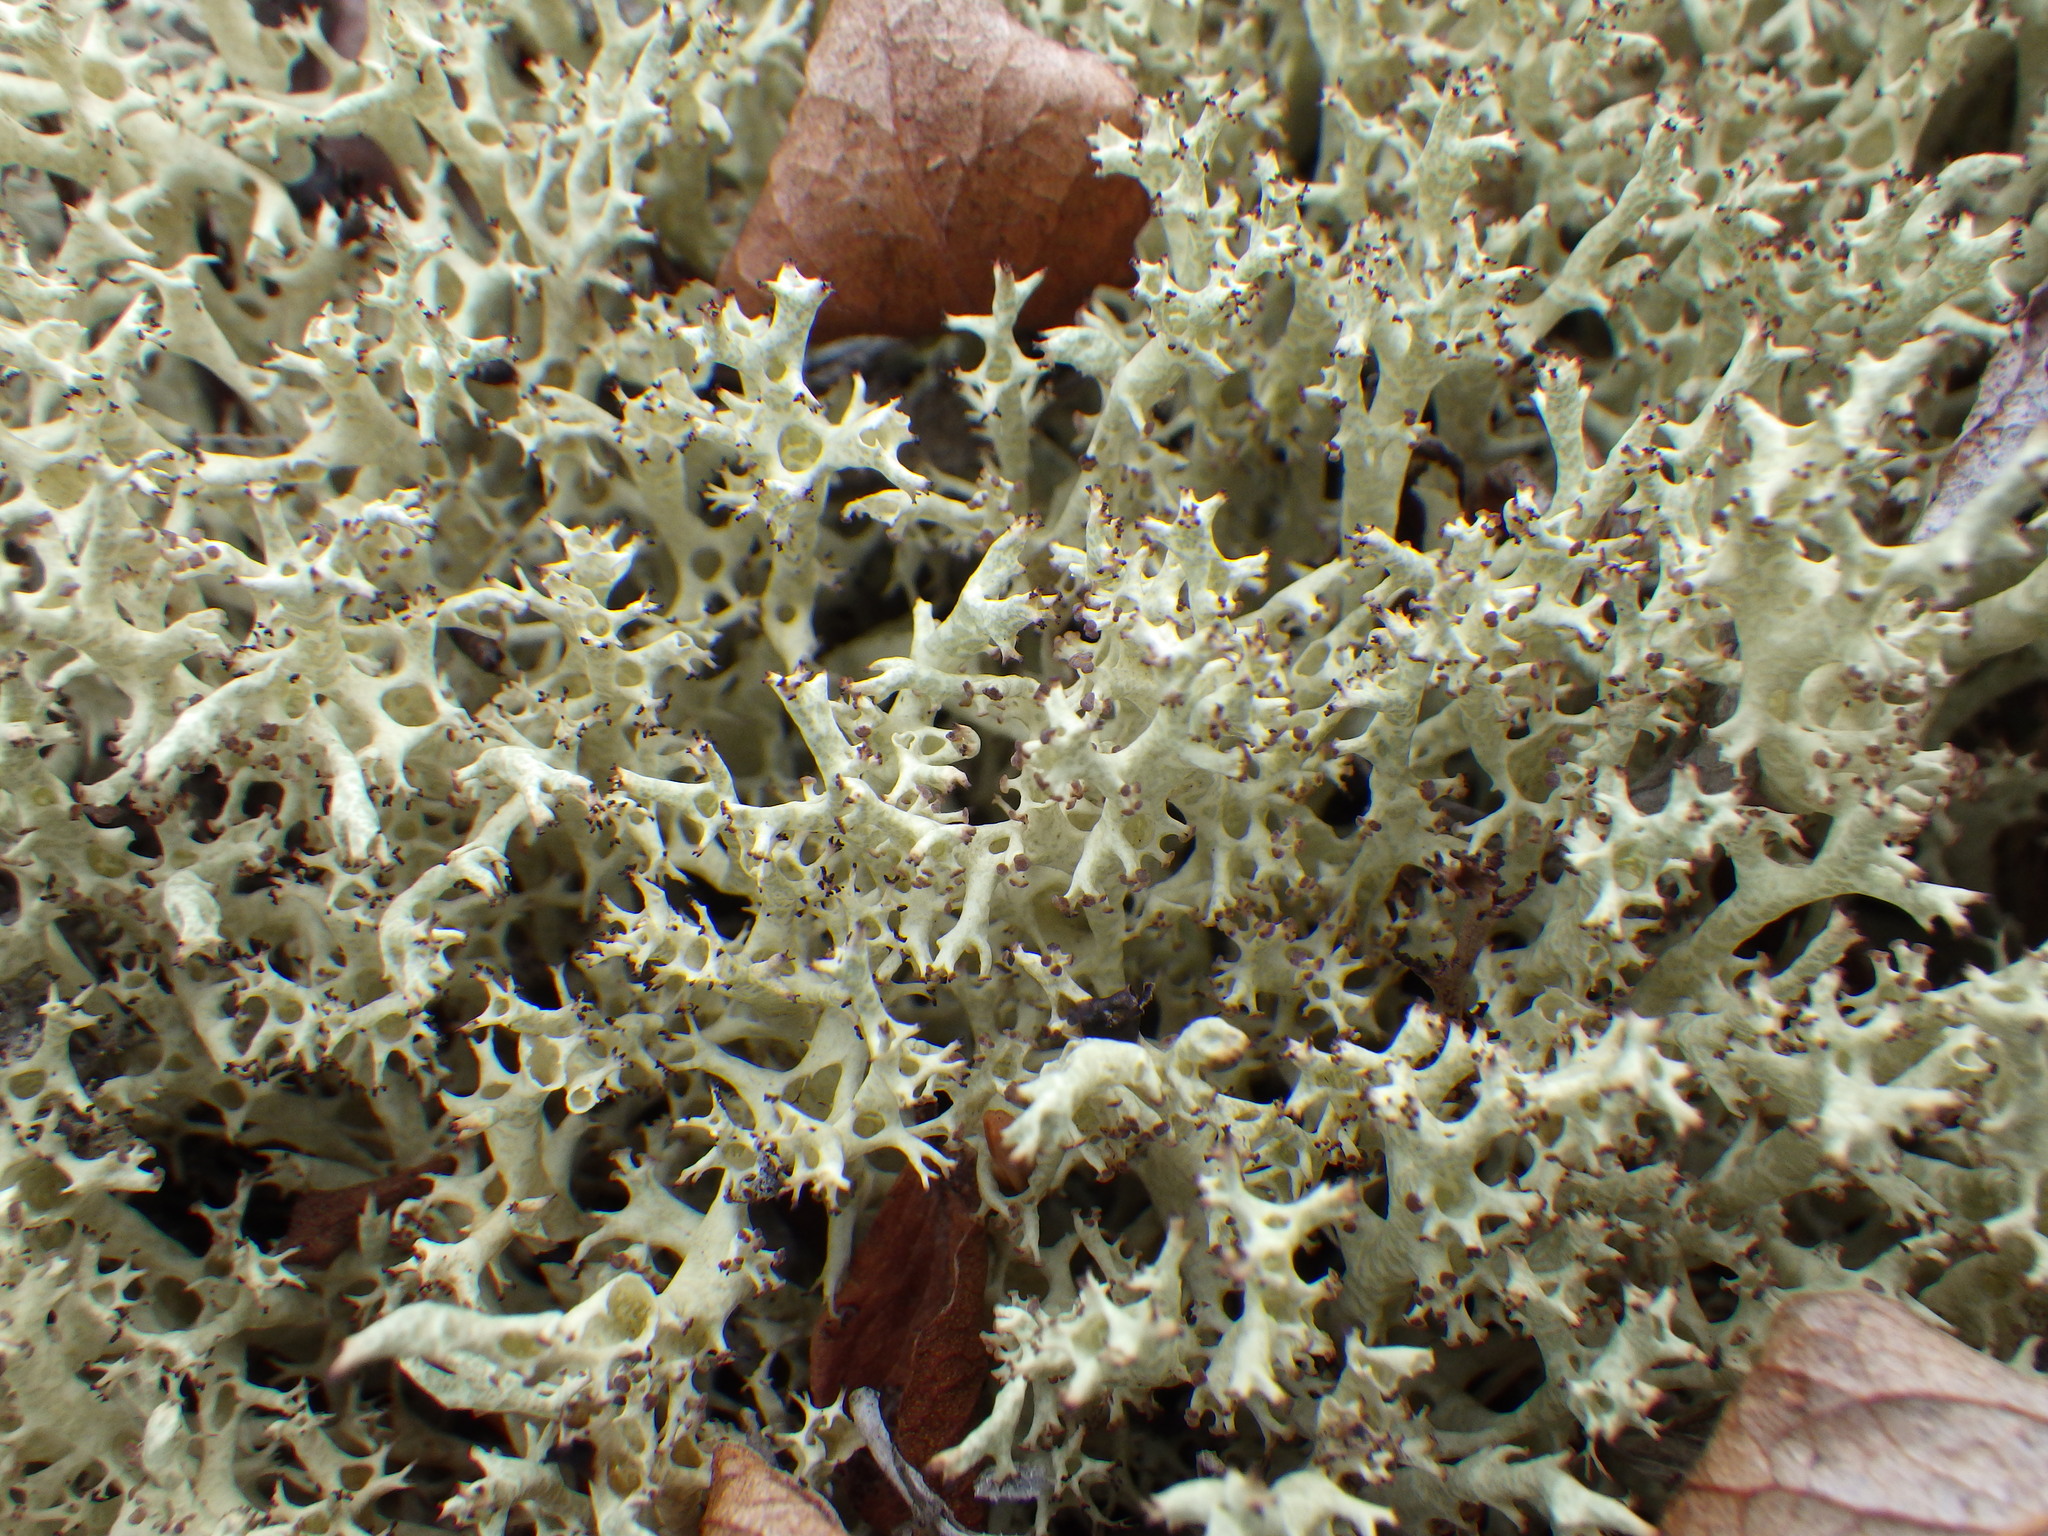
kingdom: Fungi
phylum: Ascomycota
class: Lecanoromycetes
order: Lecanorales
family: Cladoniaceae
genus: Cladonia
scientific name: Cladonia uncialis
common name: Thorn lichen
